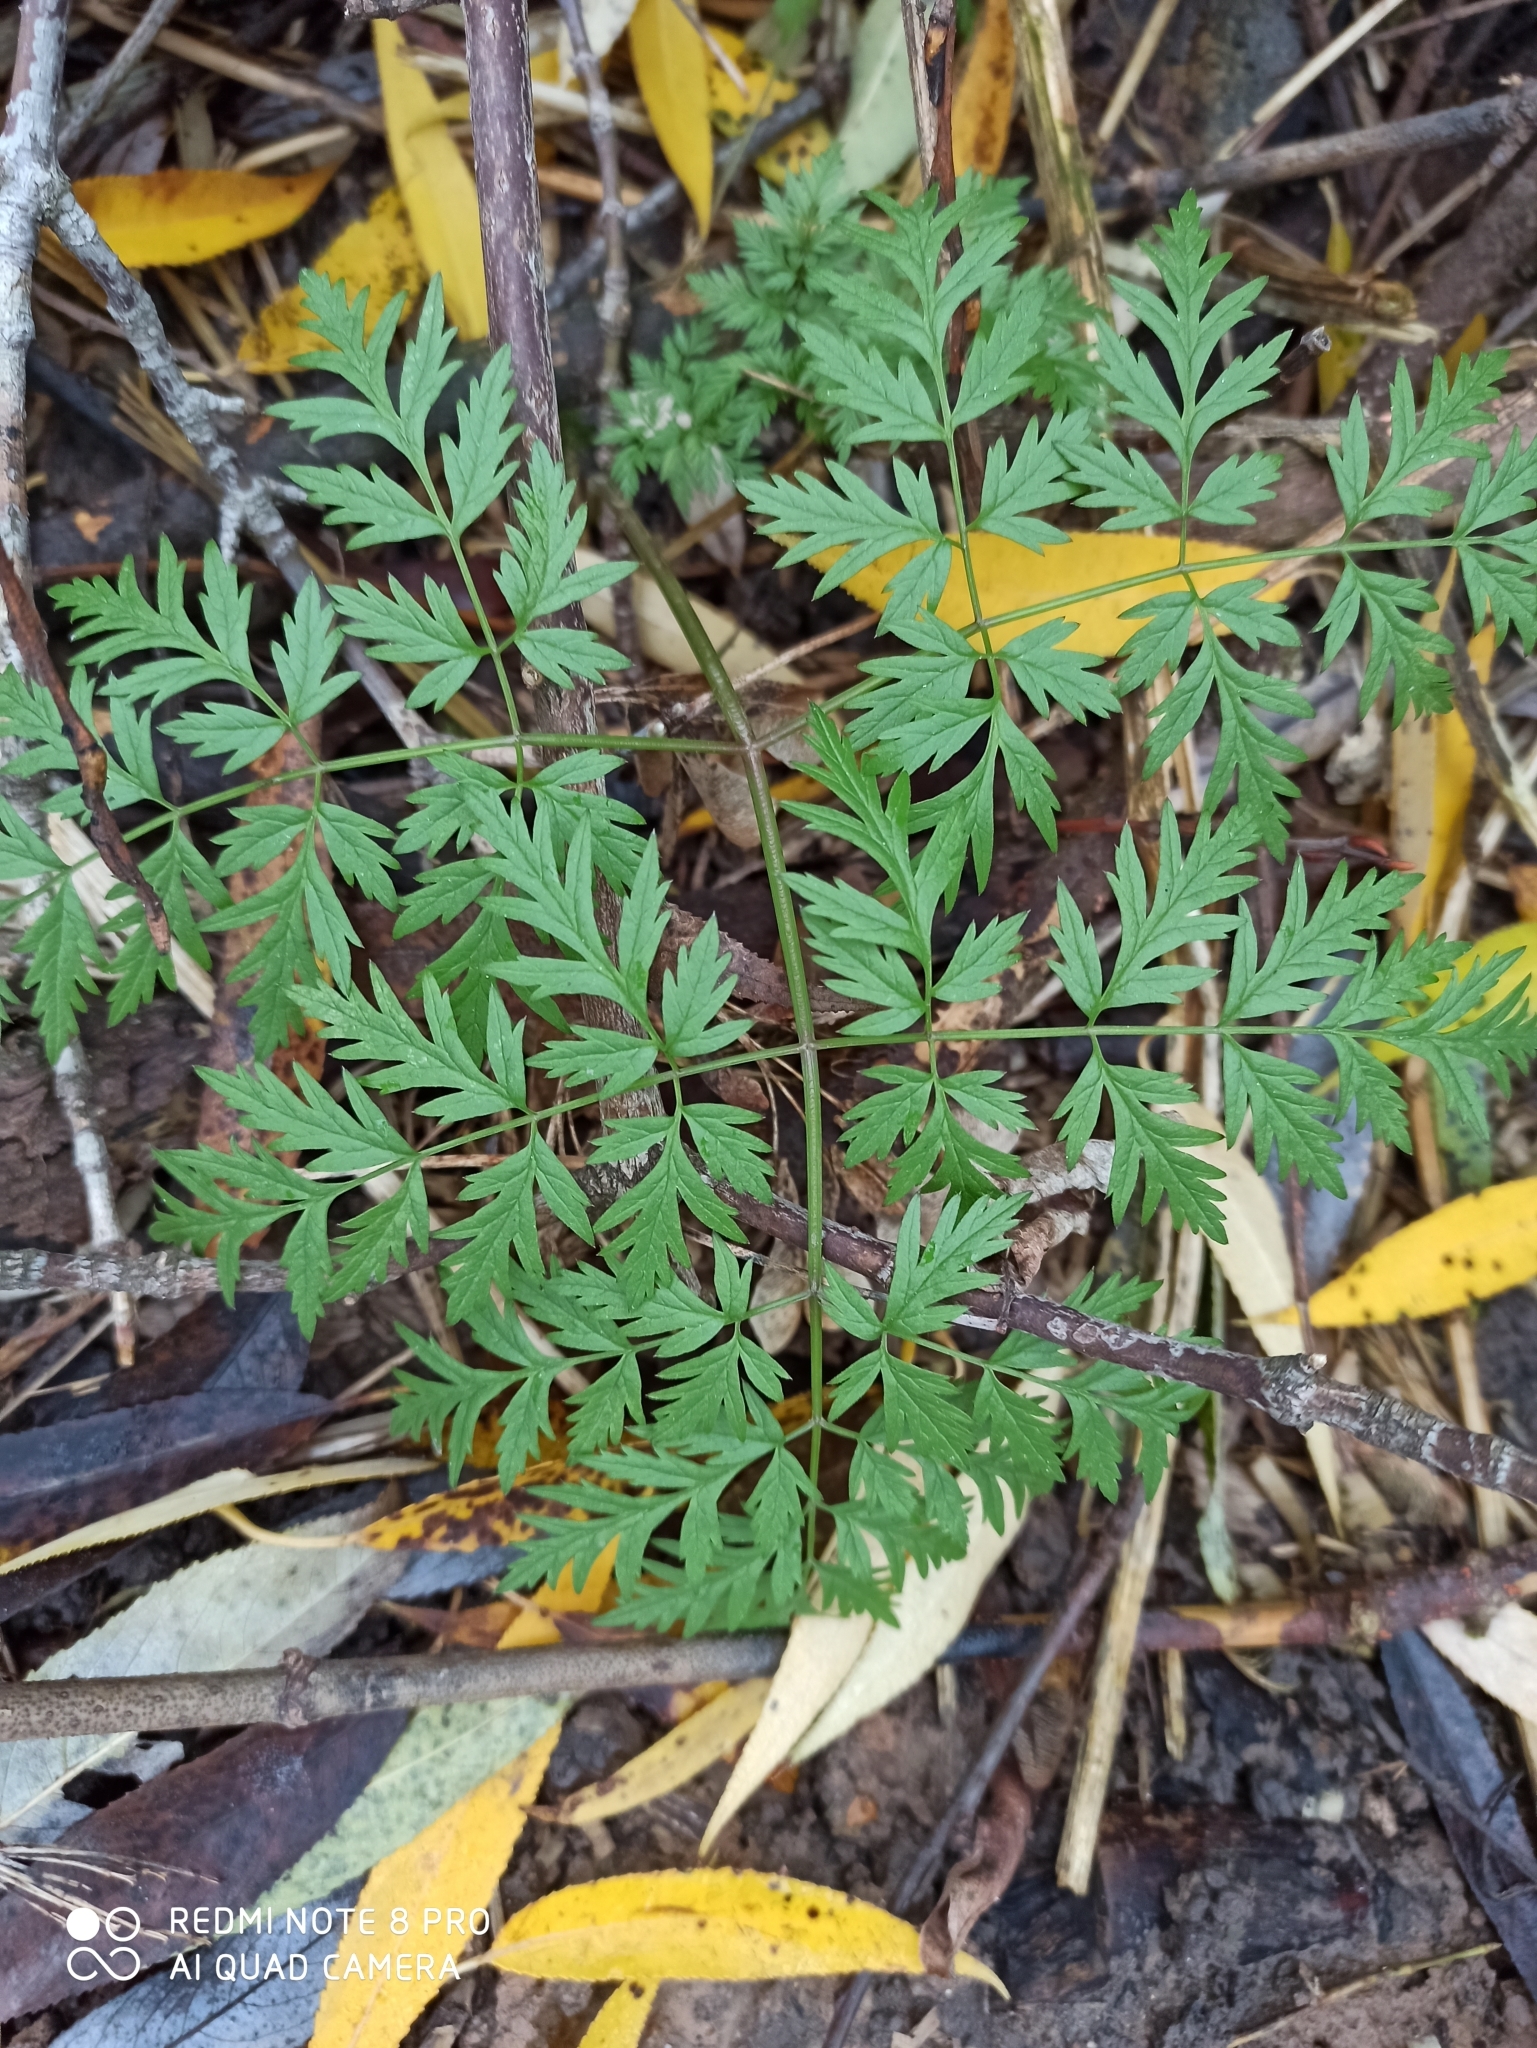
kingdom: Plantae
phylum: Tracheophyta
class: Magnoliopsida
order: Apiales
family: Apiaceae
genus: Anthriscus
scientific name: Anthriscus sylvestris
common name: Cow parsley
